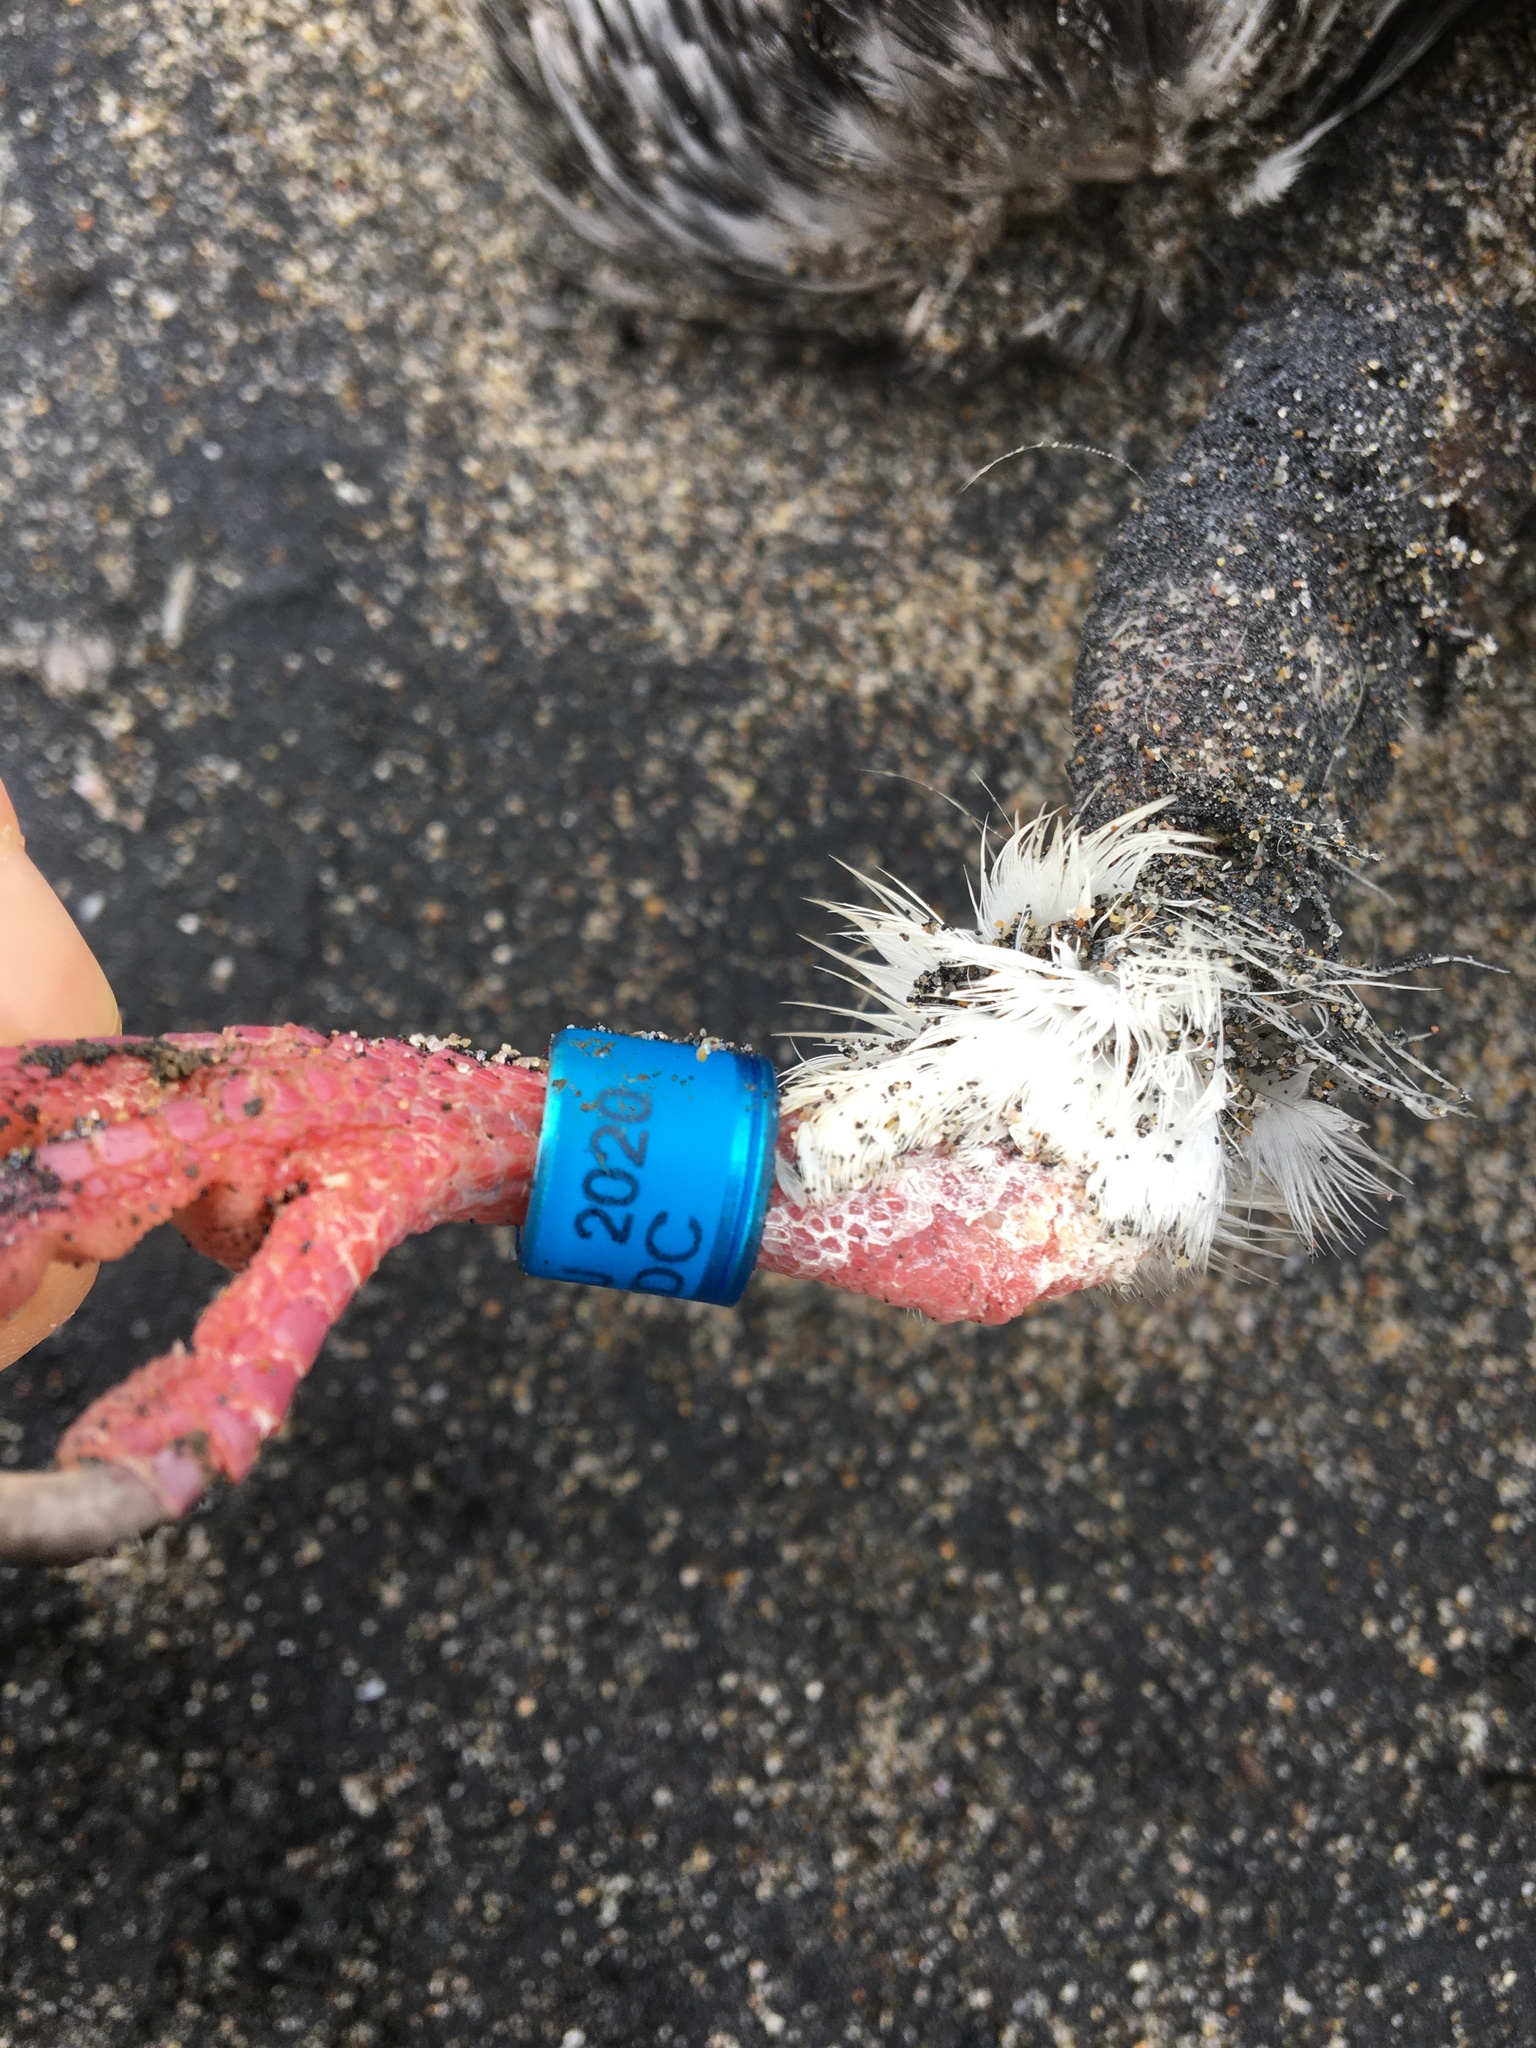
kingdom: Animalia
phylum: Chordata
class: Aves
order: Columbiformes
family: Columbidae
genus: Columba
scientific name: Columba livia
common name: Rock pigeon
